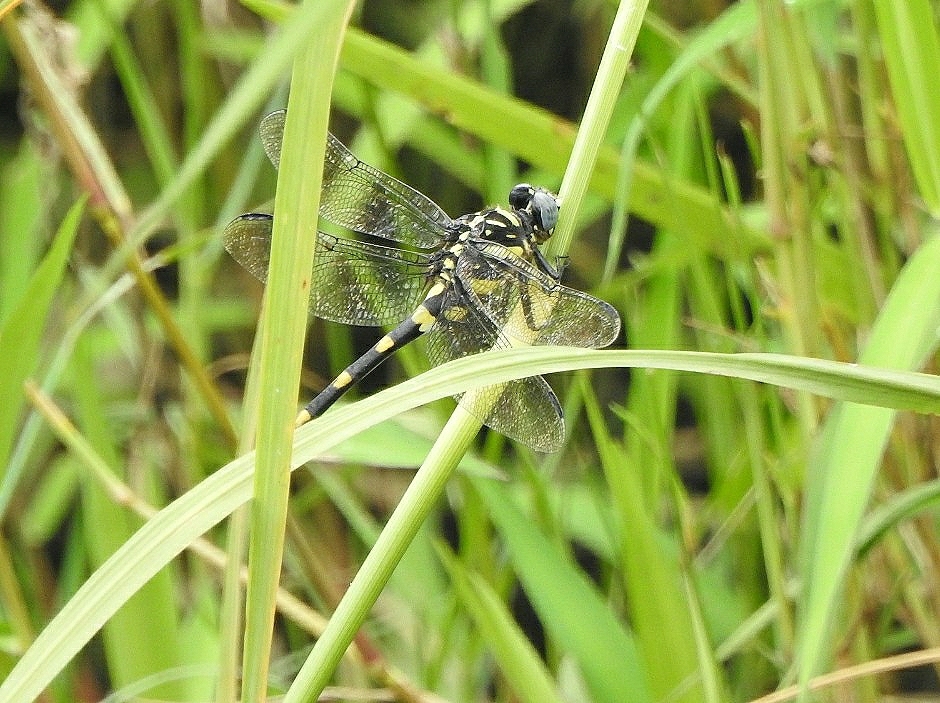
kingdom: Animalia
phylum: Arthropoda
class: Insecta
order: Odonata
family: Gomphidae
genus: Ictinogomphus
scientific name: Ictinogomphus rapax
